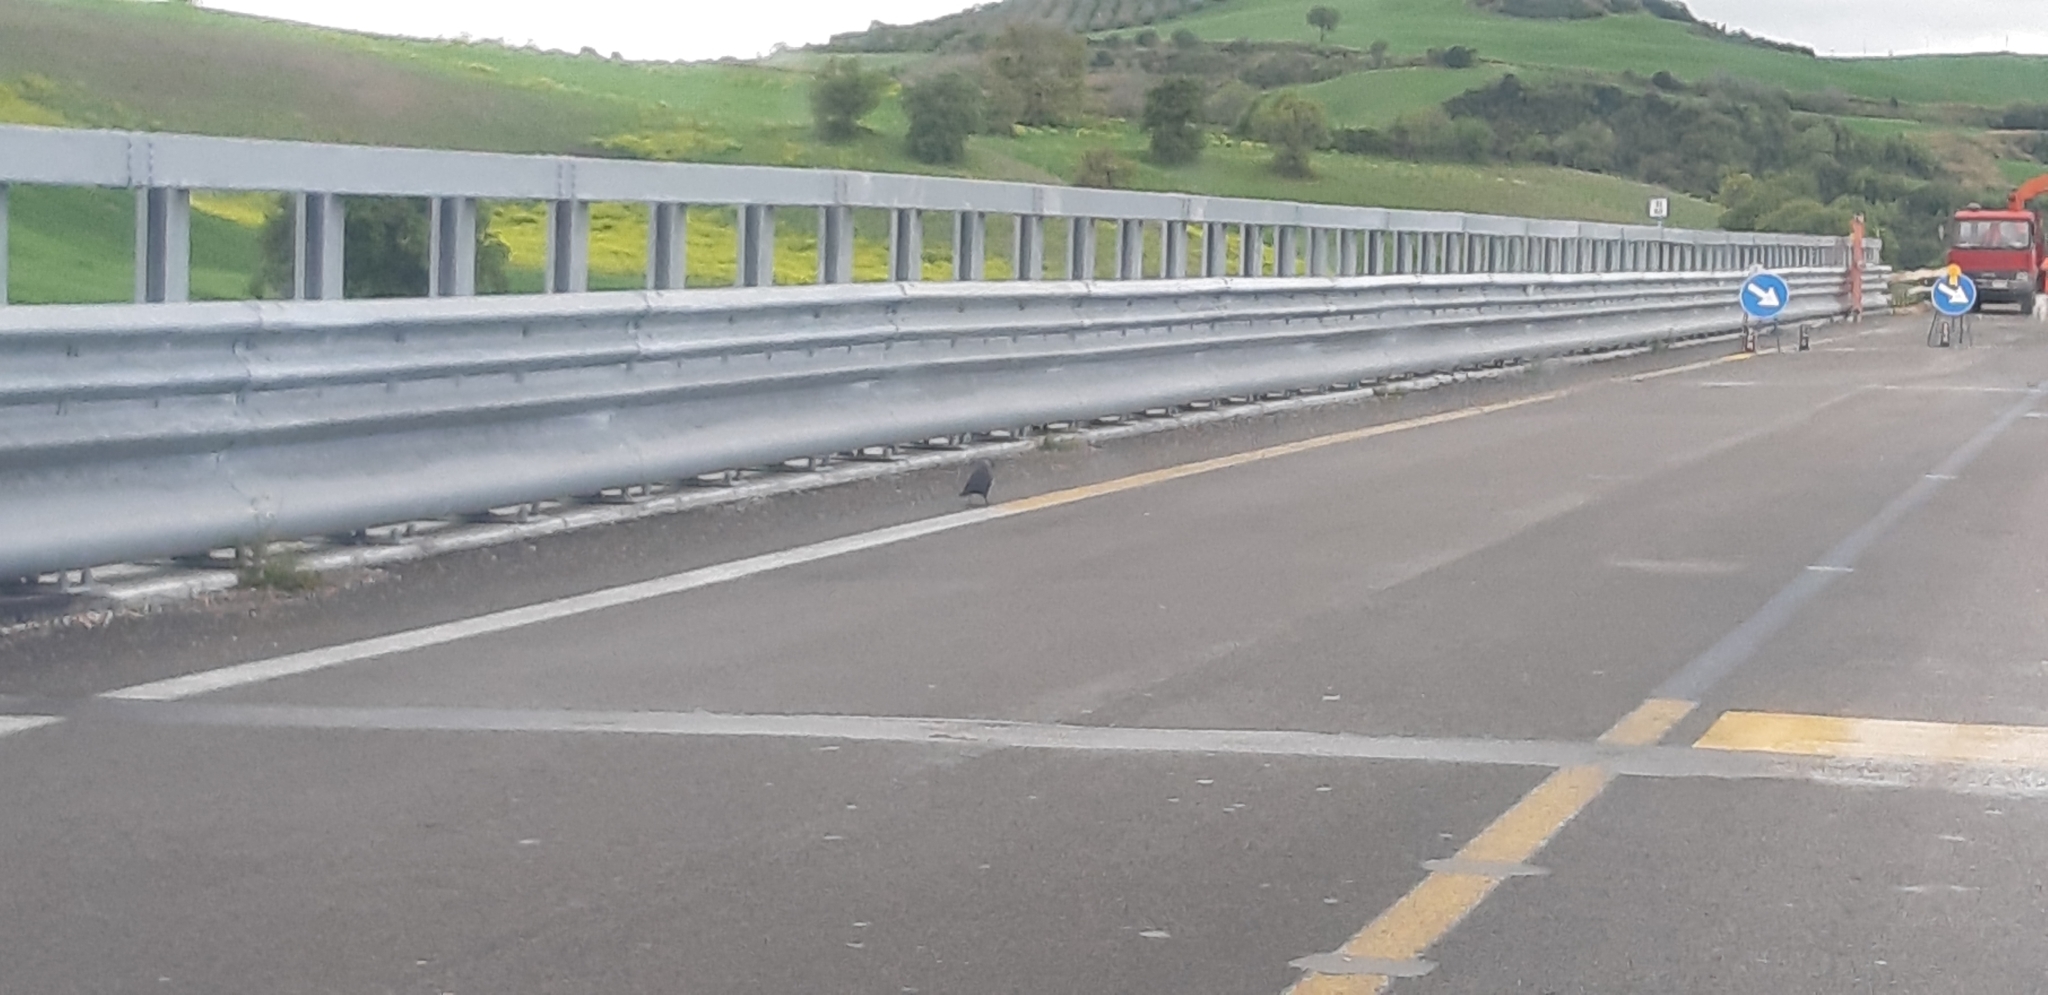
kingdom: Animalia
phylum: Chordata
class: Aves
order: Passeriformes
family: Corvidae
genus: Coloeus
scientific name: Coloeus monedula
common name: Western jackdaw
